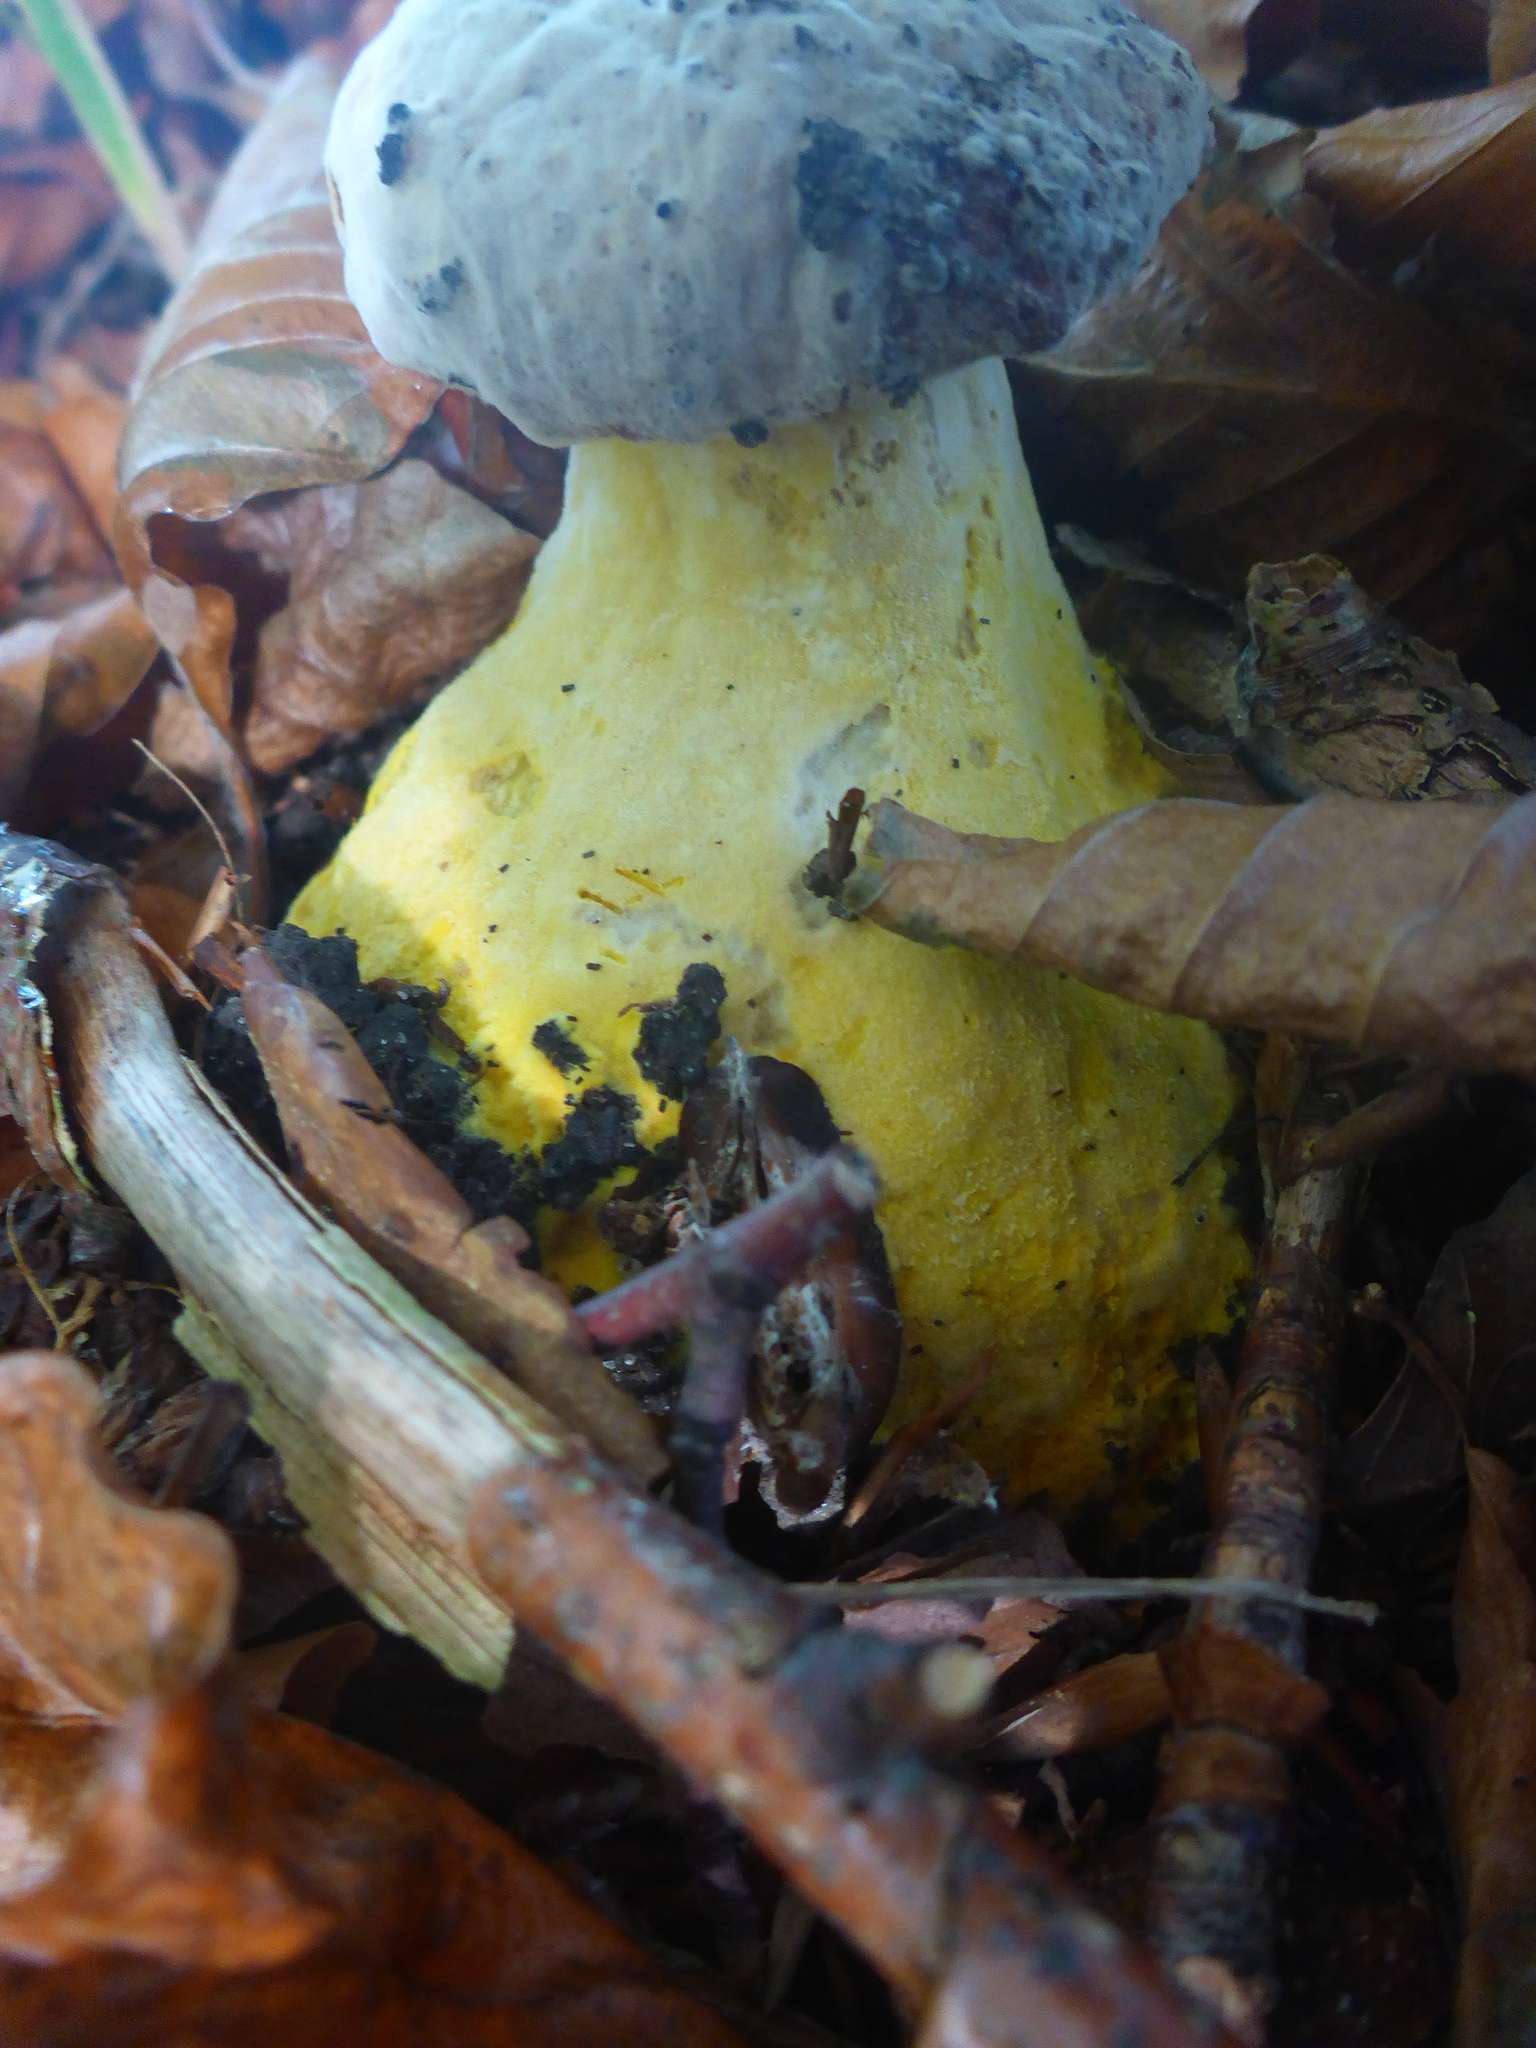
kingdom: Fungi
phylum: Ascomycota
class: Sordariomycetes
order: Hypocreales
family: Hypocreaceae
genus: Hypomyces
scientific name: Hypomyces chrysospermus
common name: Bolete mould
